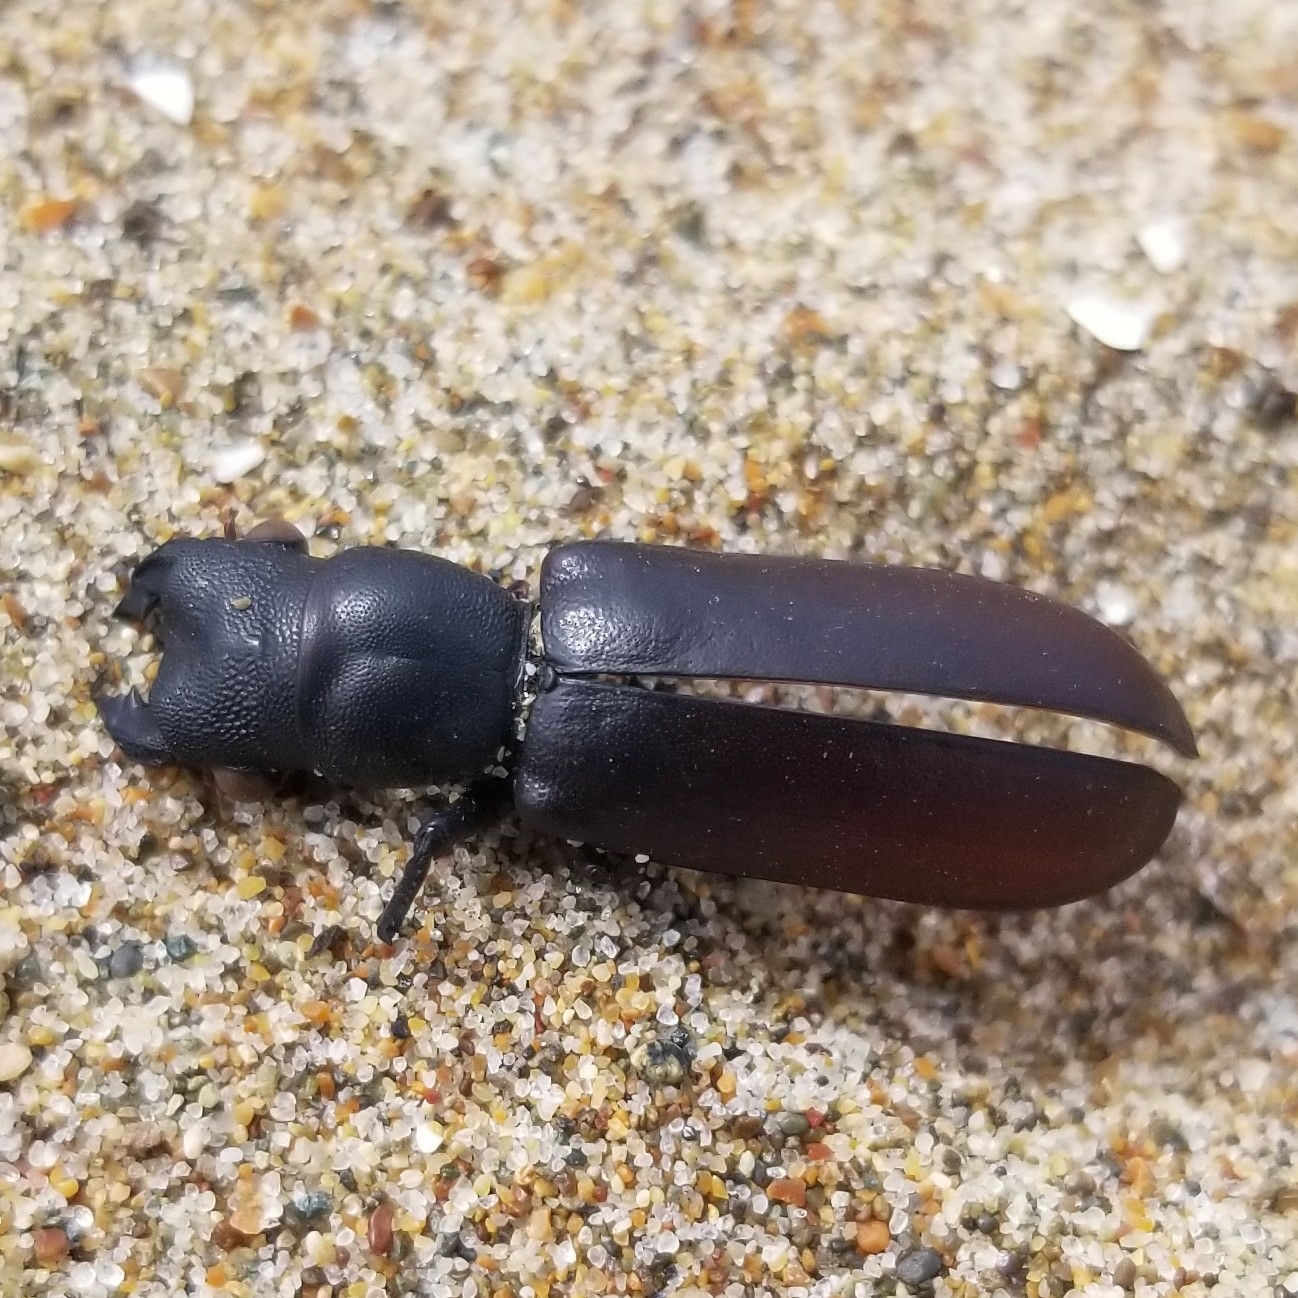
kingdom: Animalia
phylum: Arthropoda
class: Insecta
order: Coleoptera
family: Bostrichidae
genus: Polycaon
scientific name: Polycaon stoutii
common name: Powderpost beetle
